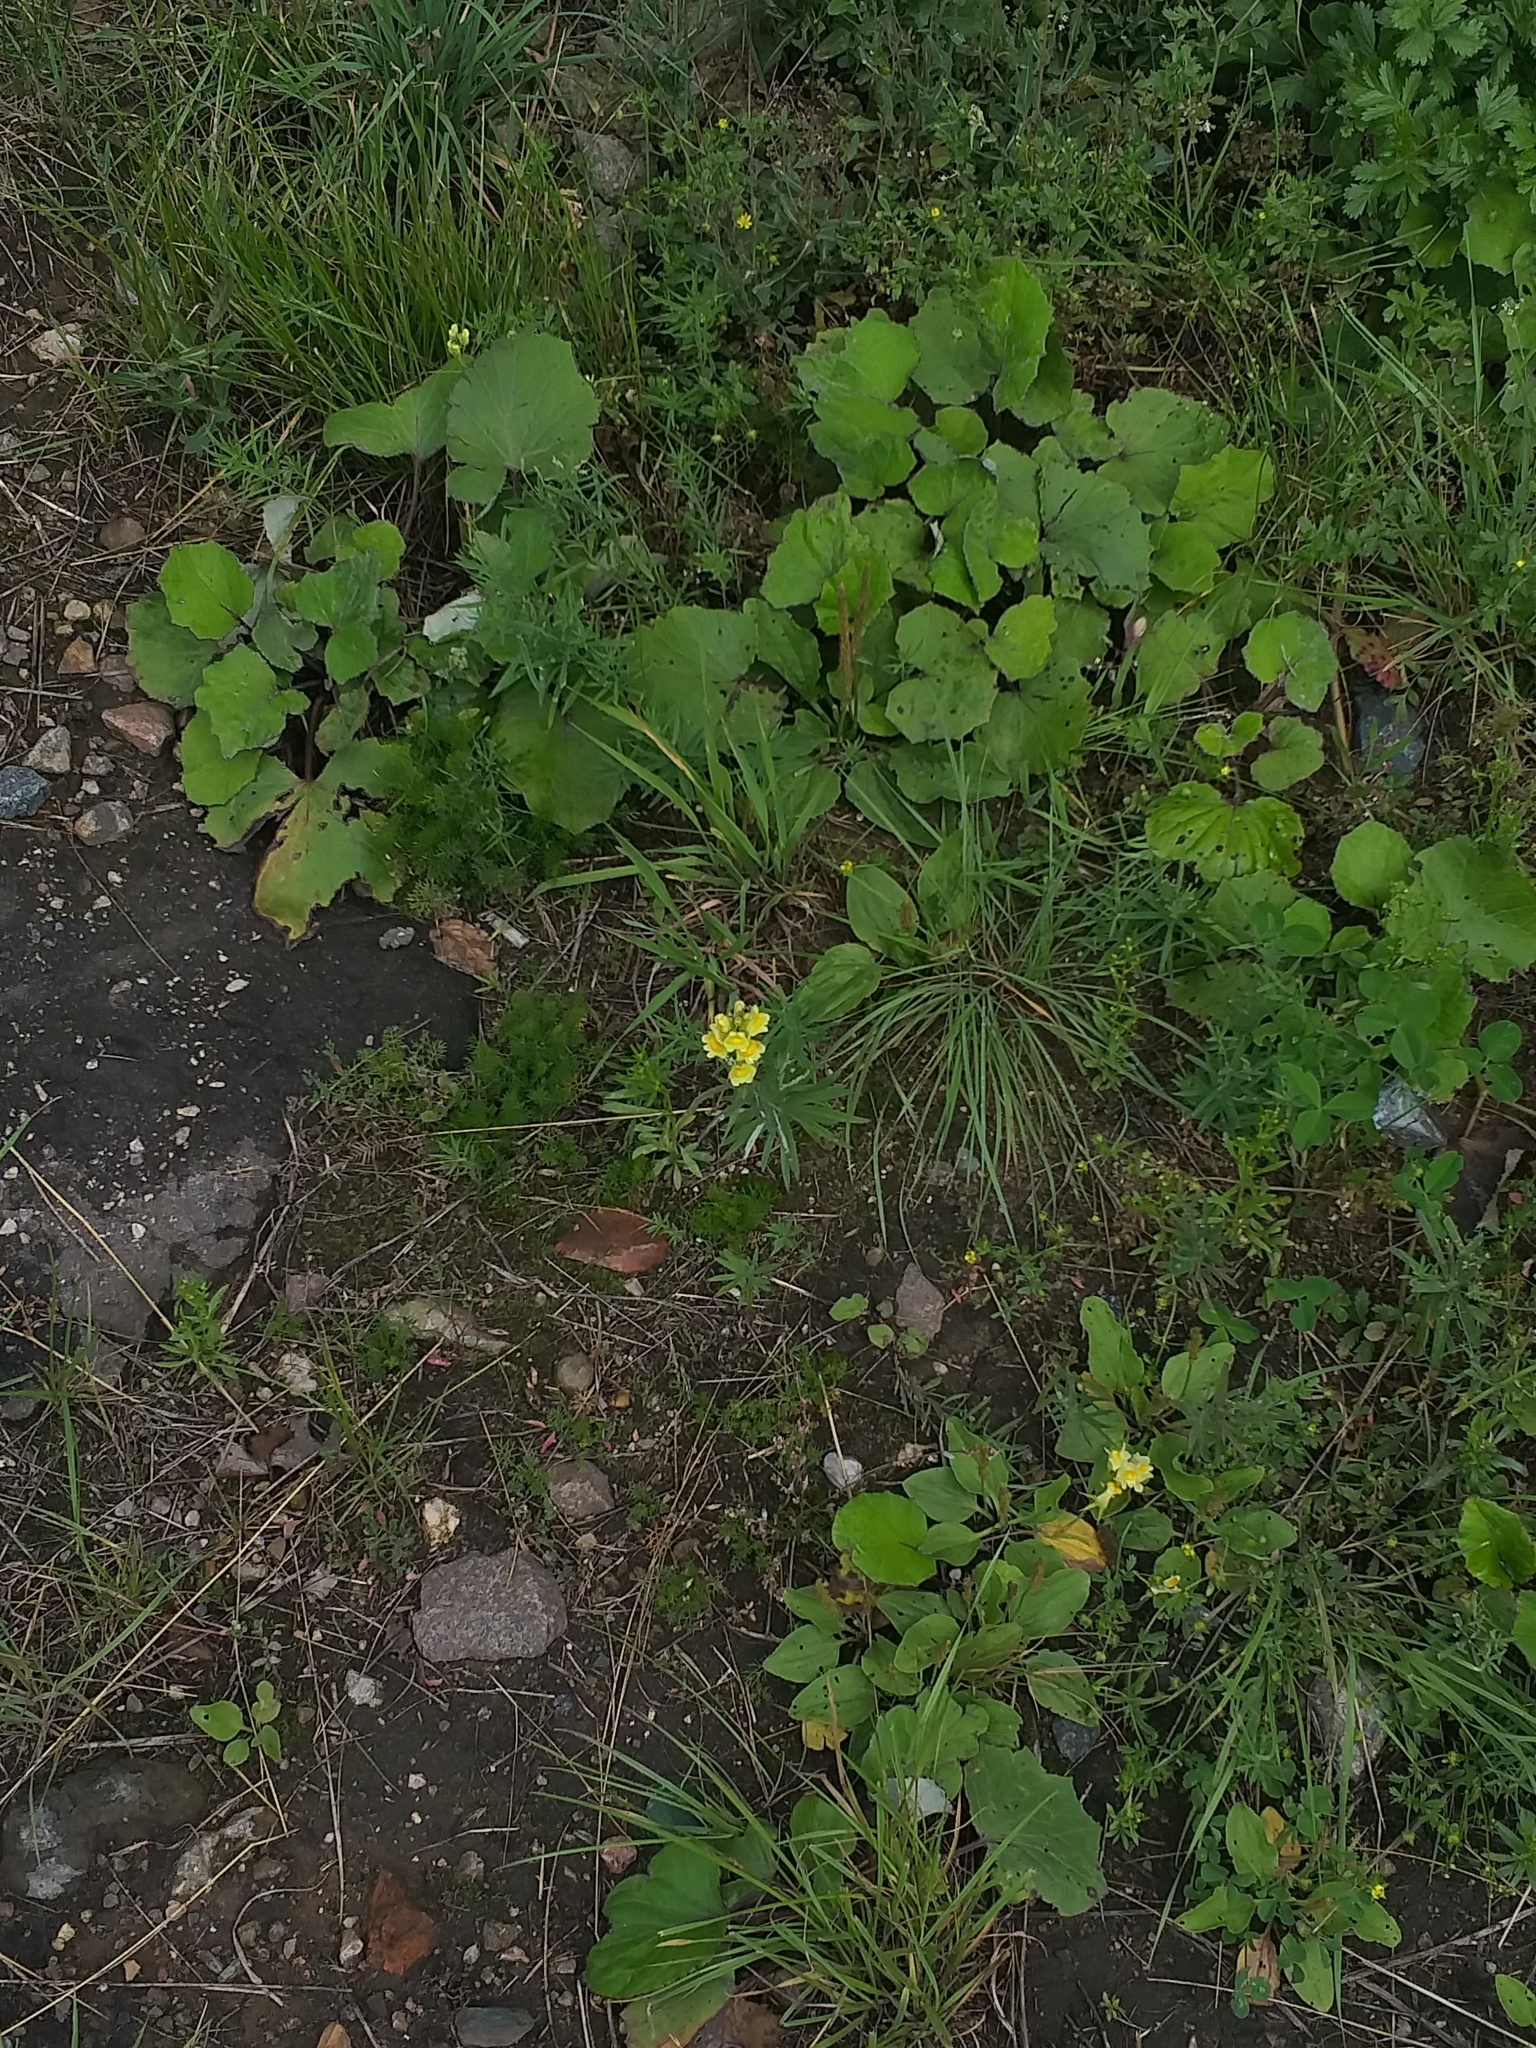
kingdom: Plantae
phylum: Tracheophyta
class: Magnoliopsida
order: Lamiales
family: Plantaginaceae
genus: Linaria
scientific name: Linaria vulgaris
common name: Butter and eggs
